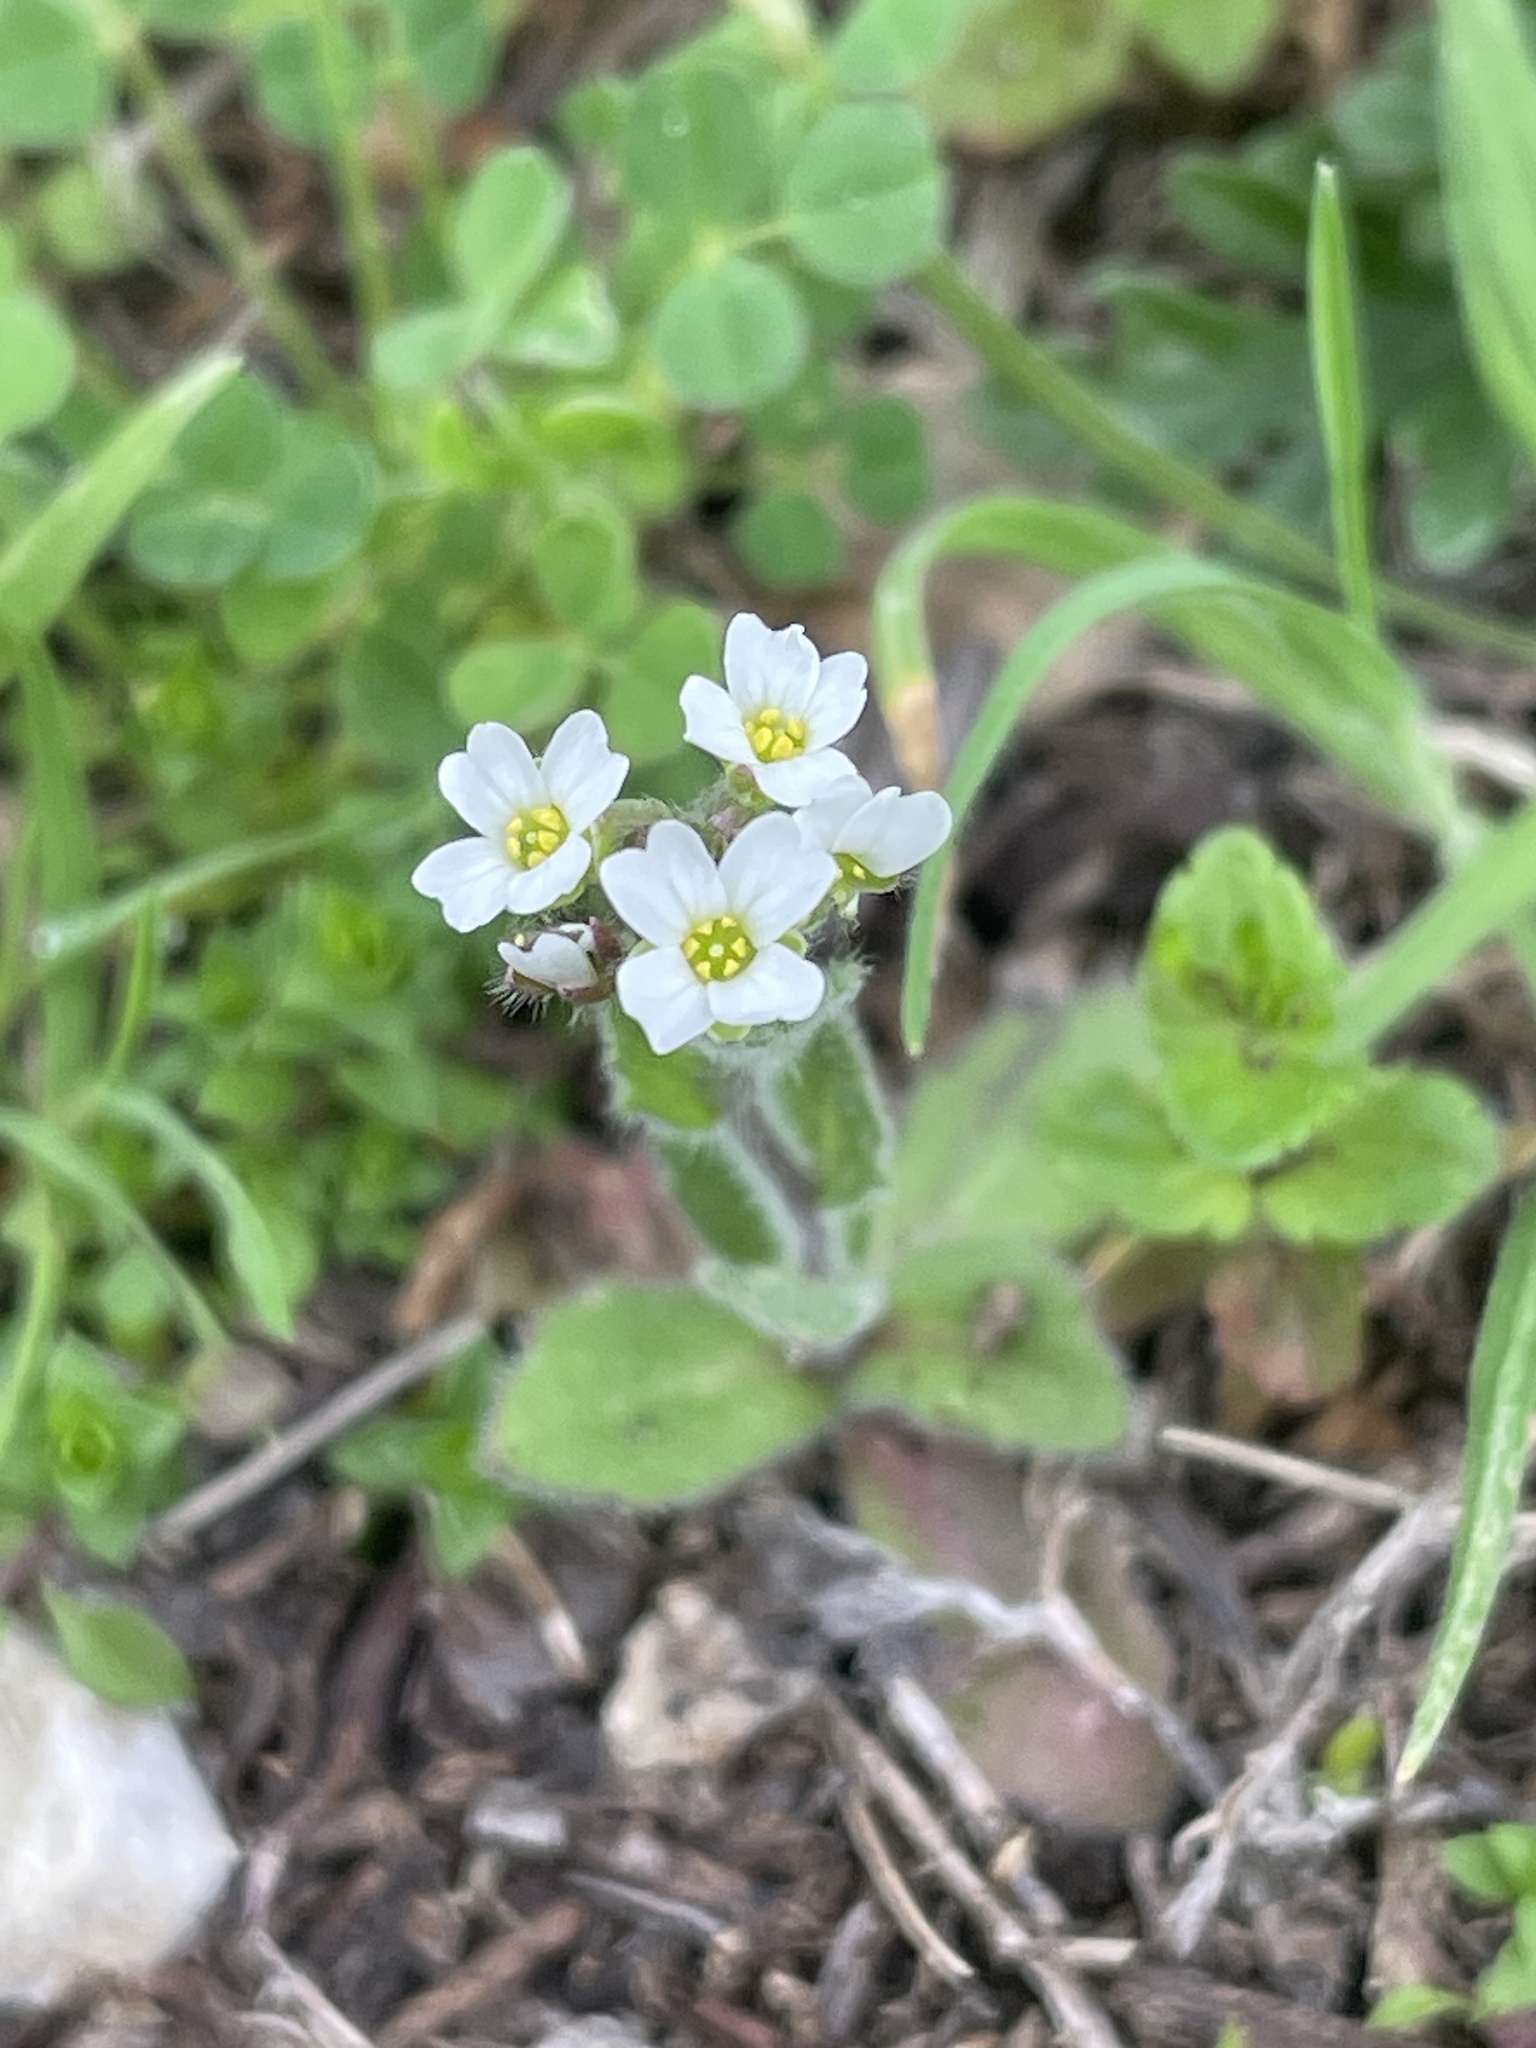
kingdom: Plantae
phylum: Tracheophyta
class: Magnoliopsida
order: Brassicales
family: Brassicaceae
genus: Tomostima
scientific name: Tomostima platycarpa
